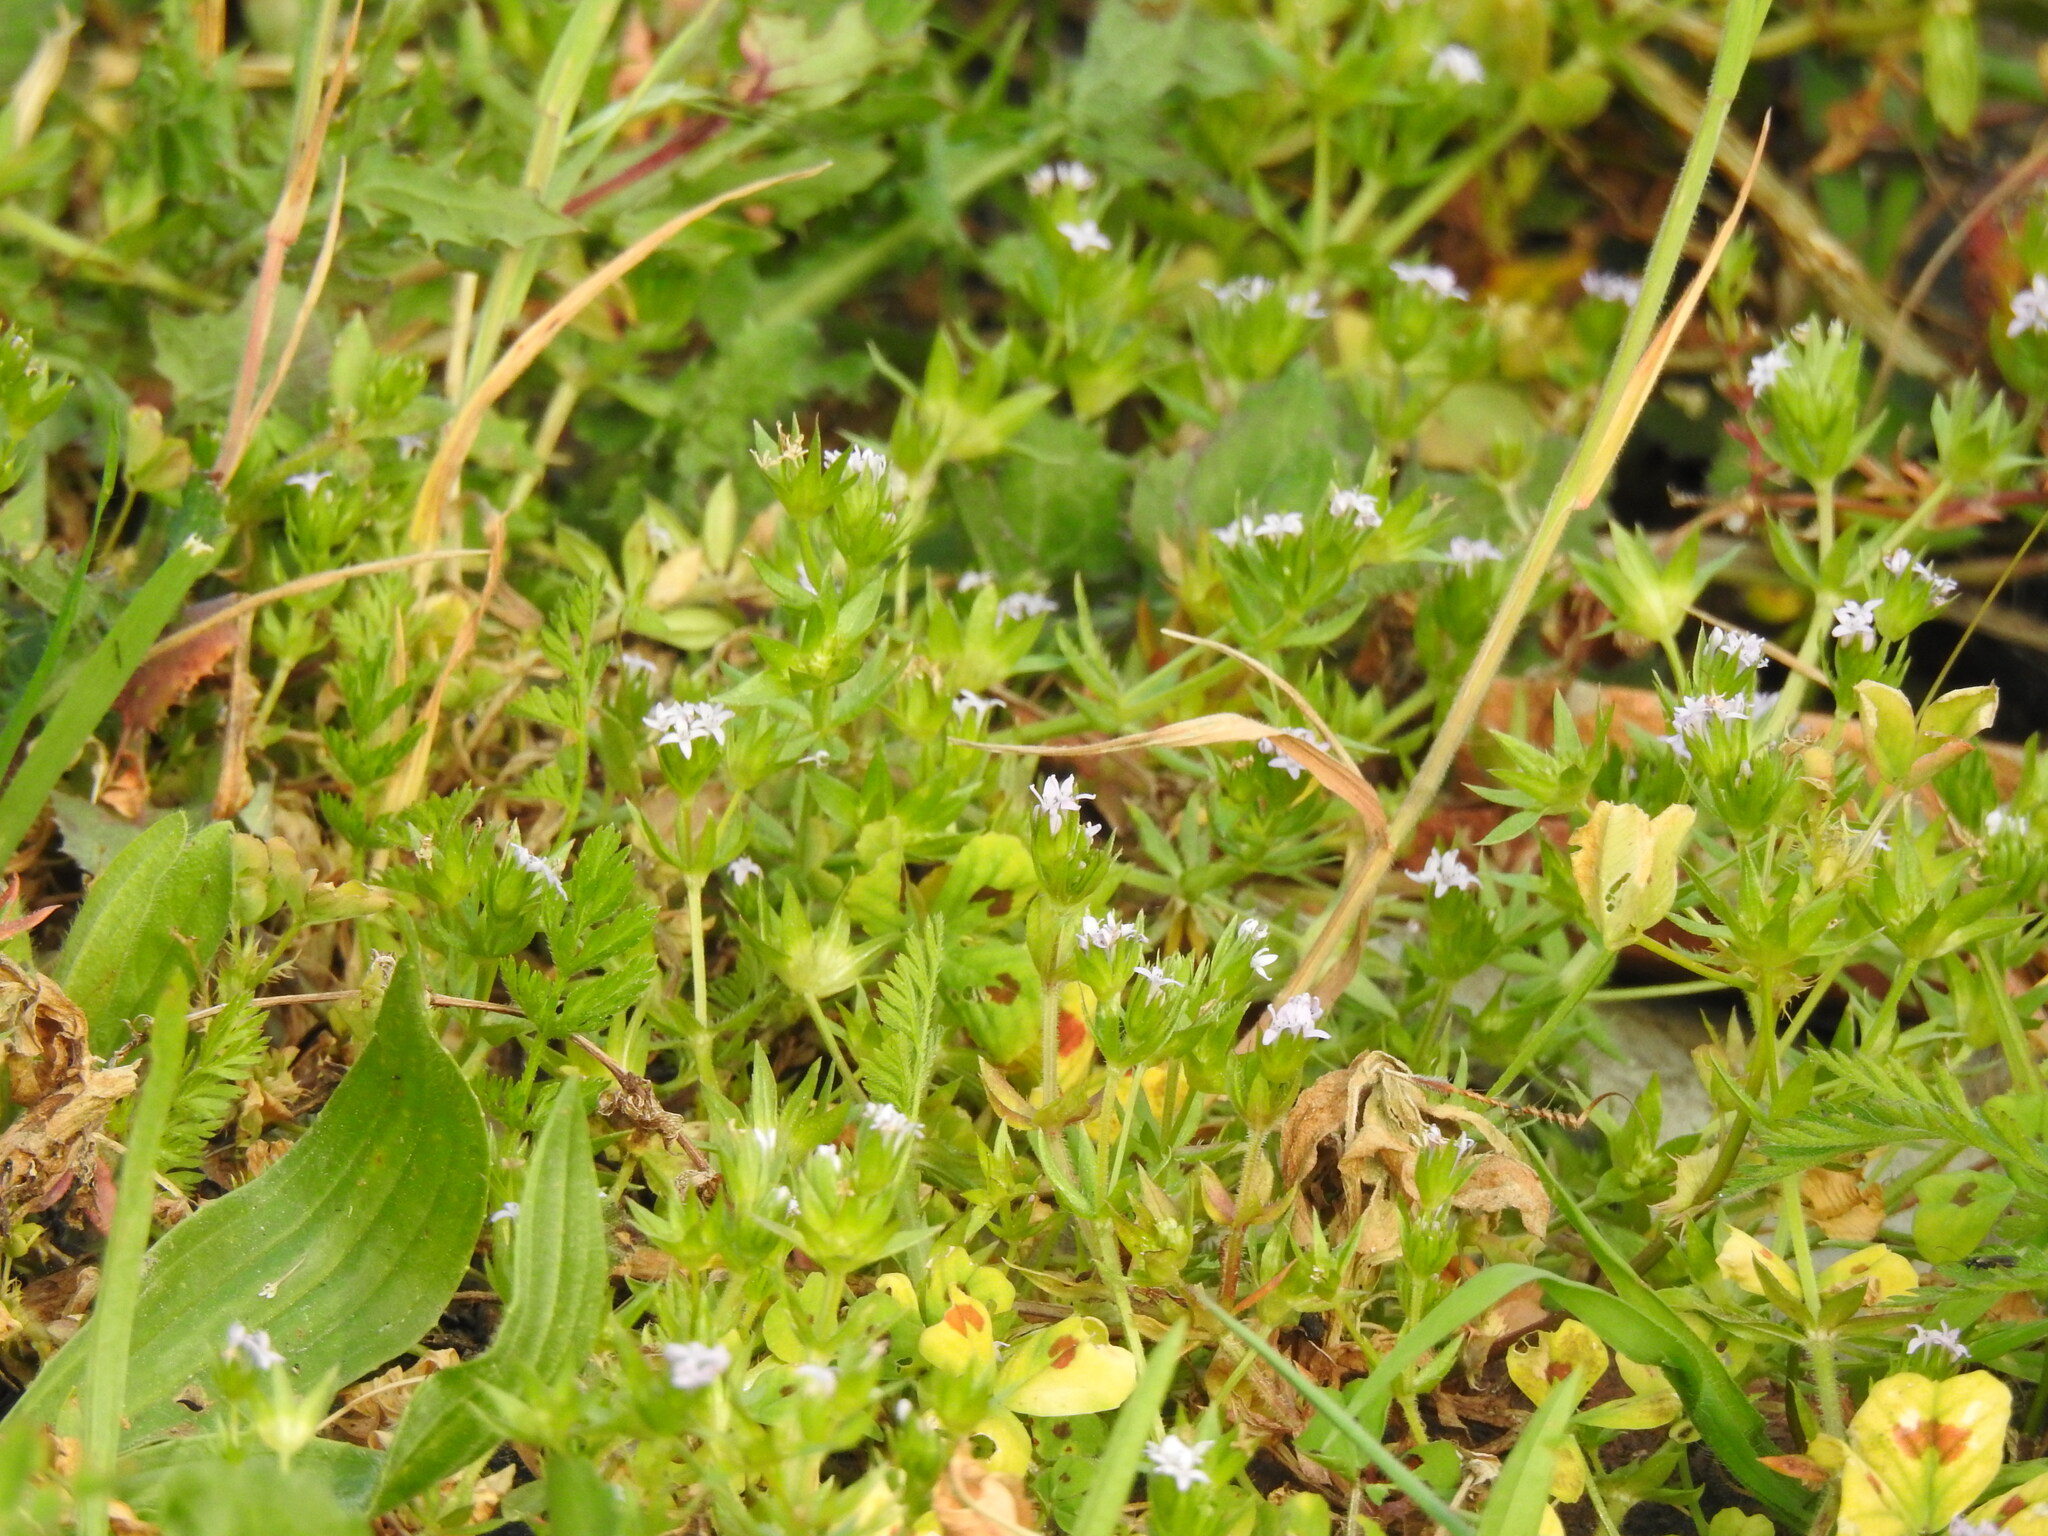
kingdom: Plantae
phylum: Tracheophyta
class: Magnoliopsida
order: Gentianales
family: Rubiaceae
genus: Sherardia
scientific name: Sherardia arvensis
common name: Field madder
